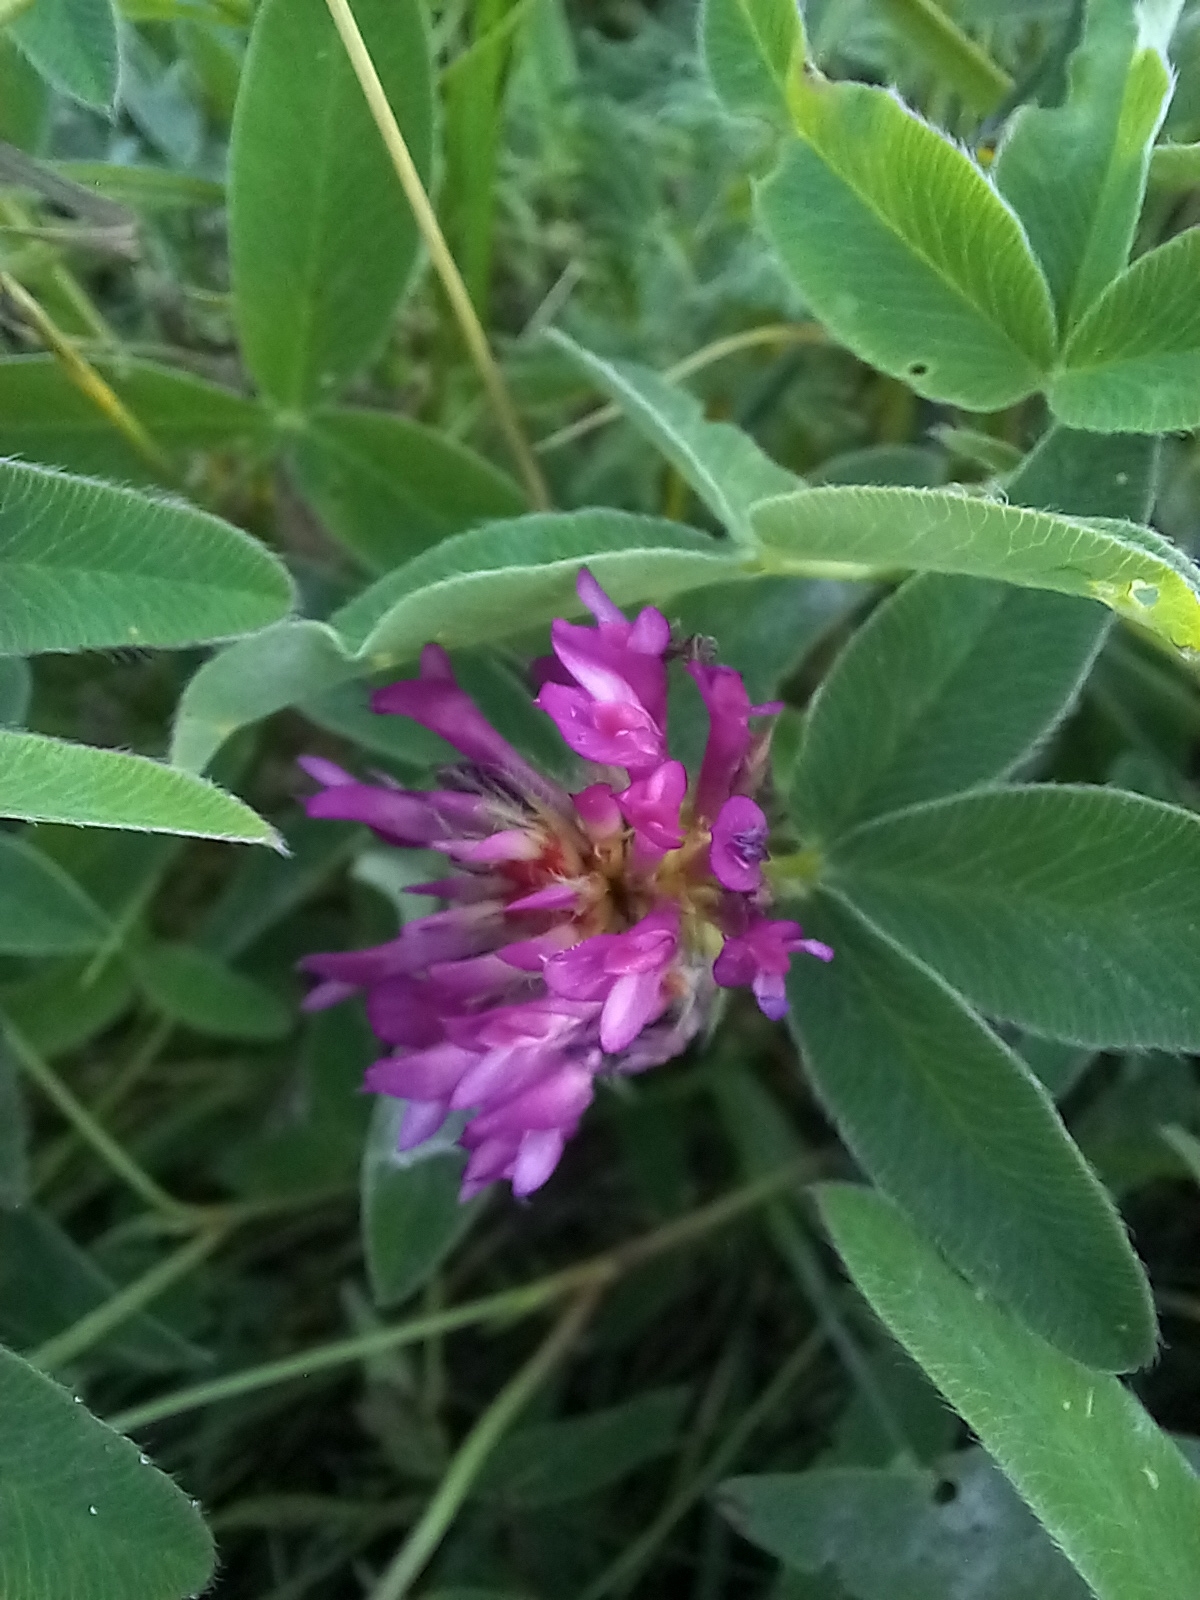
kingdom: Plantae
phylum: Tracheophyta
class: Magnoliopsida
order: Fabales
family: Fabaceae
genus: Trifolium
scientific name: Trifolium medium
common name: Zigzag clover
